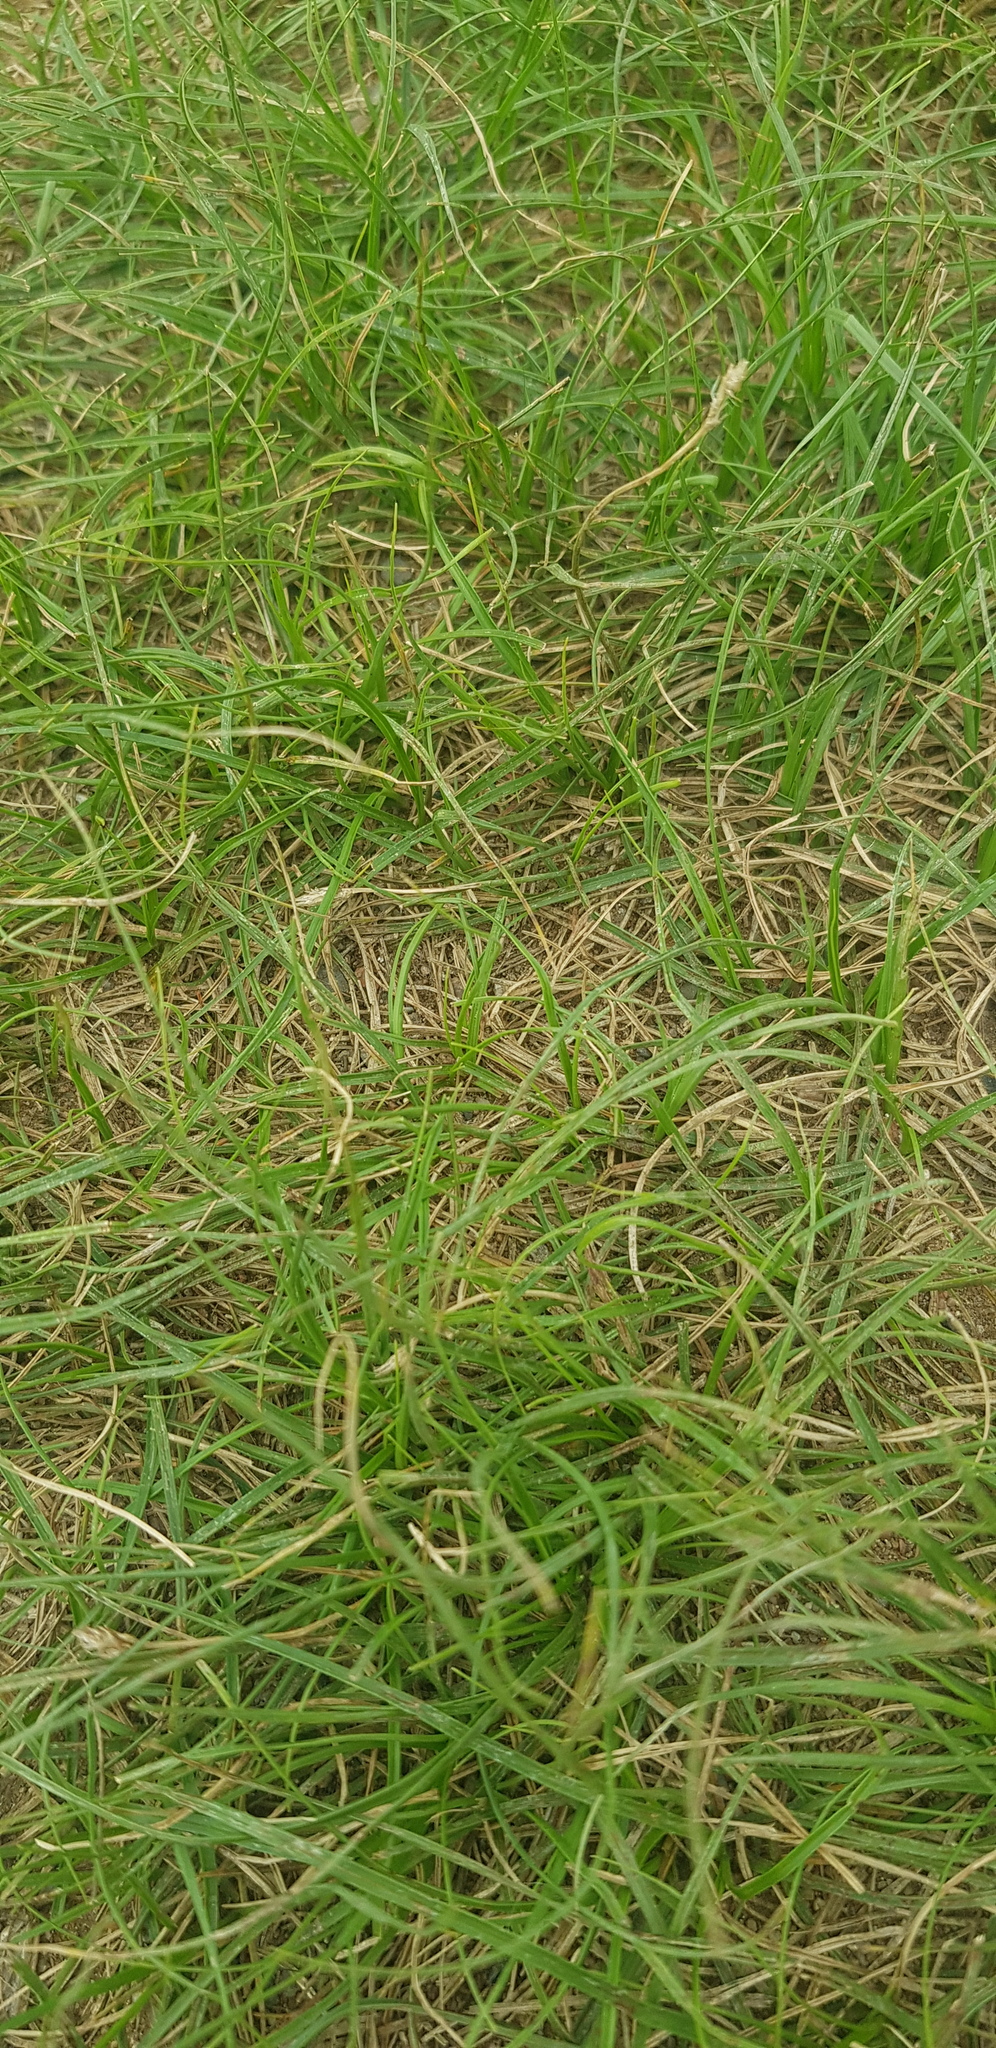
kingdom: Plantae
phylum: Tracheophyta
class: Liliopsida
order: Poales
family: Cyperaceae
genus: Carex
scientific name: Carex duriuscula
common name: Involute-leaved sedge
